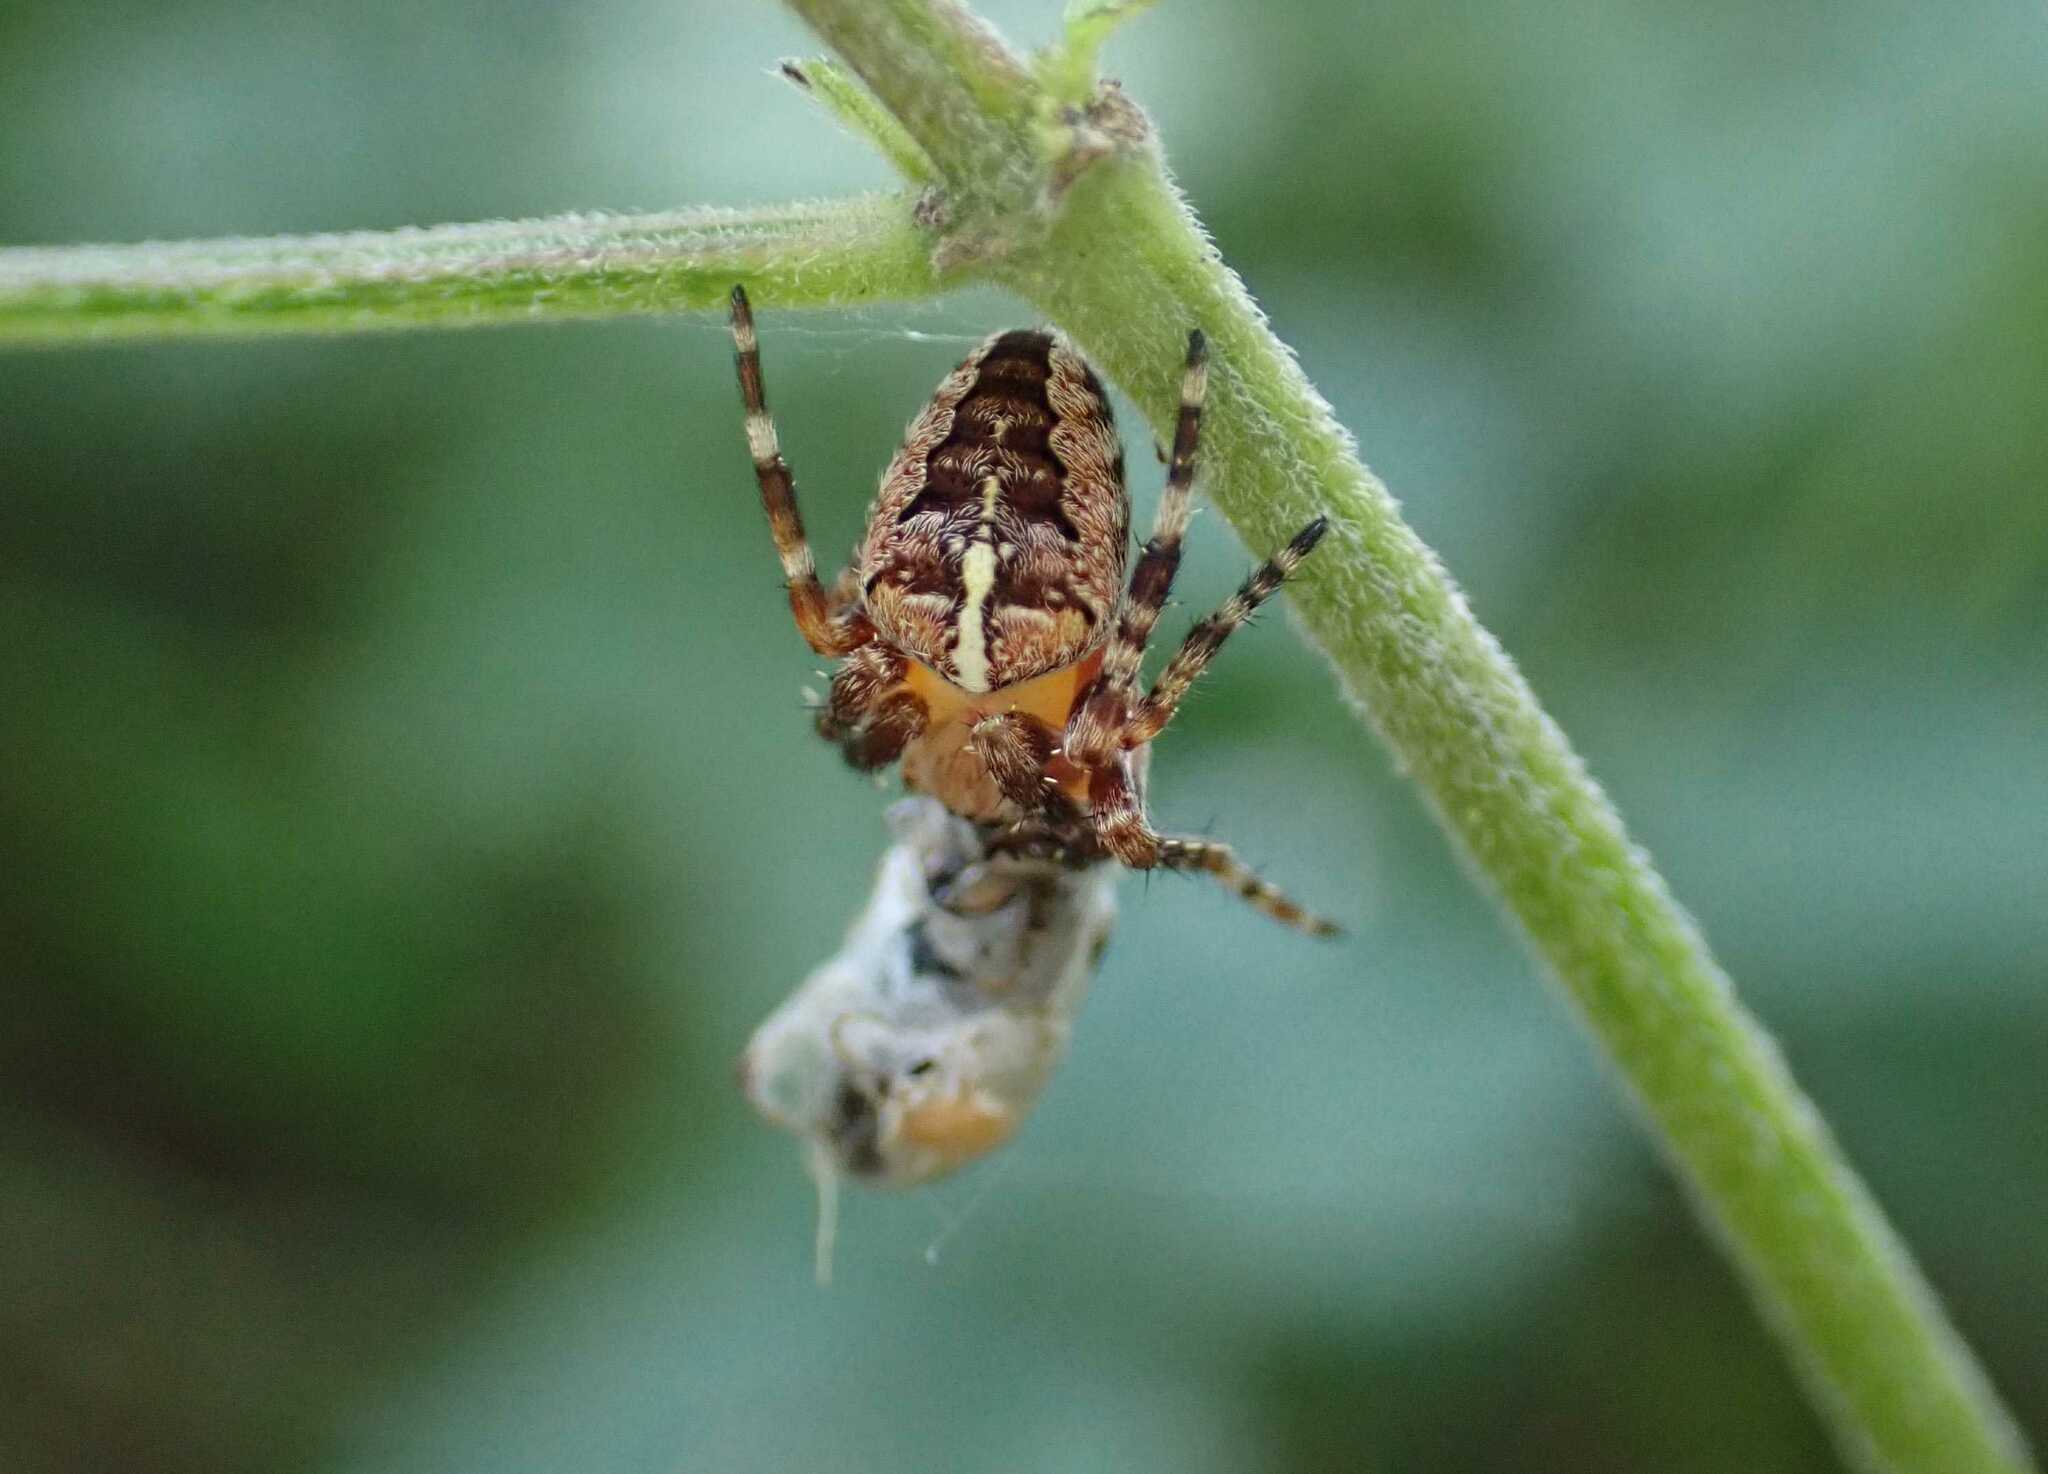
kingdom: Animalia
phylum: Arthropoda
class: Arachnida
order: Araneae
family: Araneidae
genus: Araneus
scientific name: Araneus diadematus
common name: Cross orbweaver
